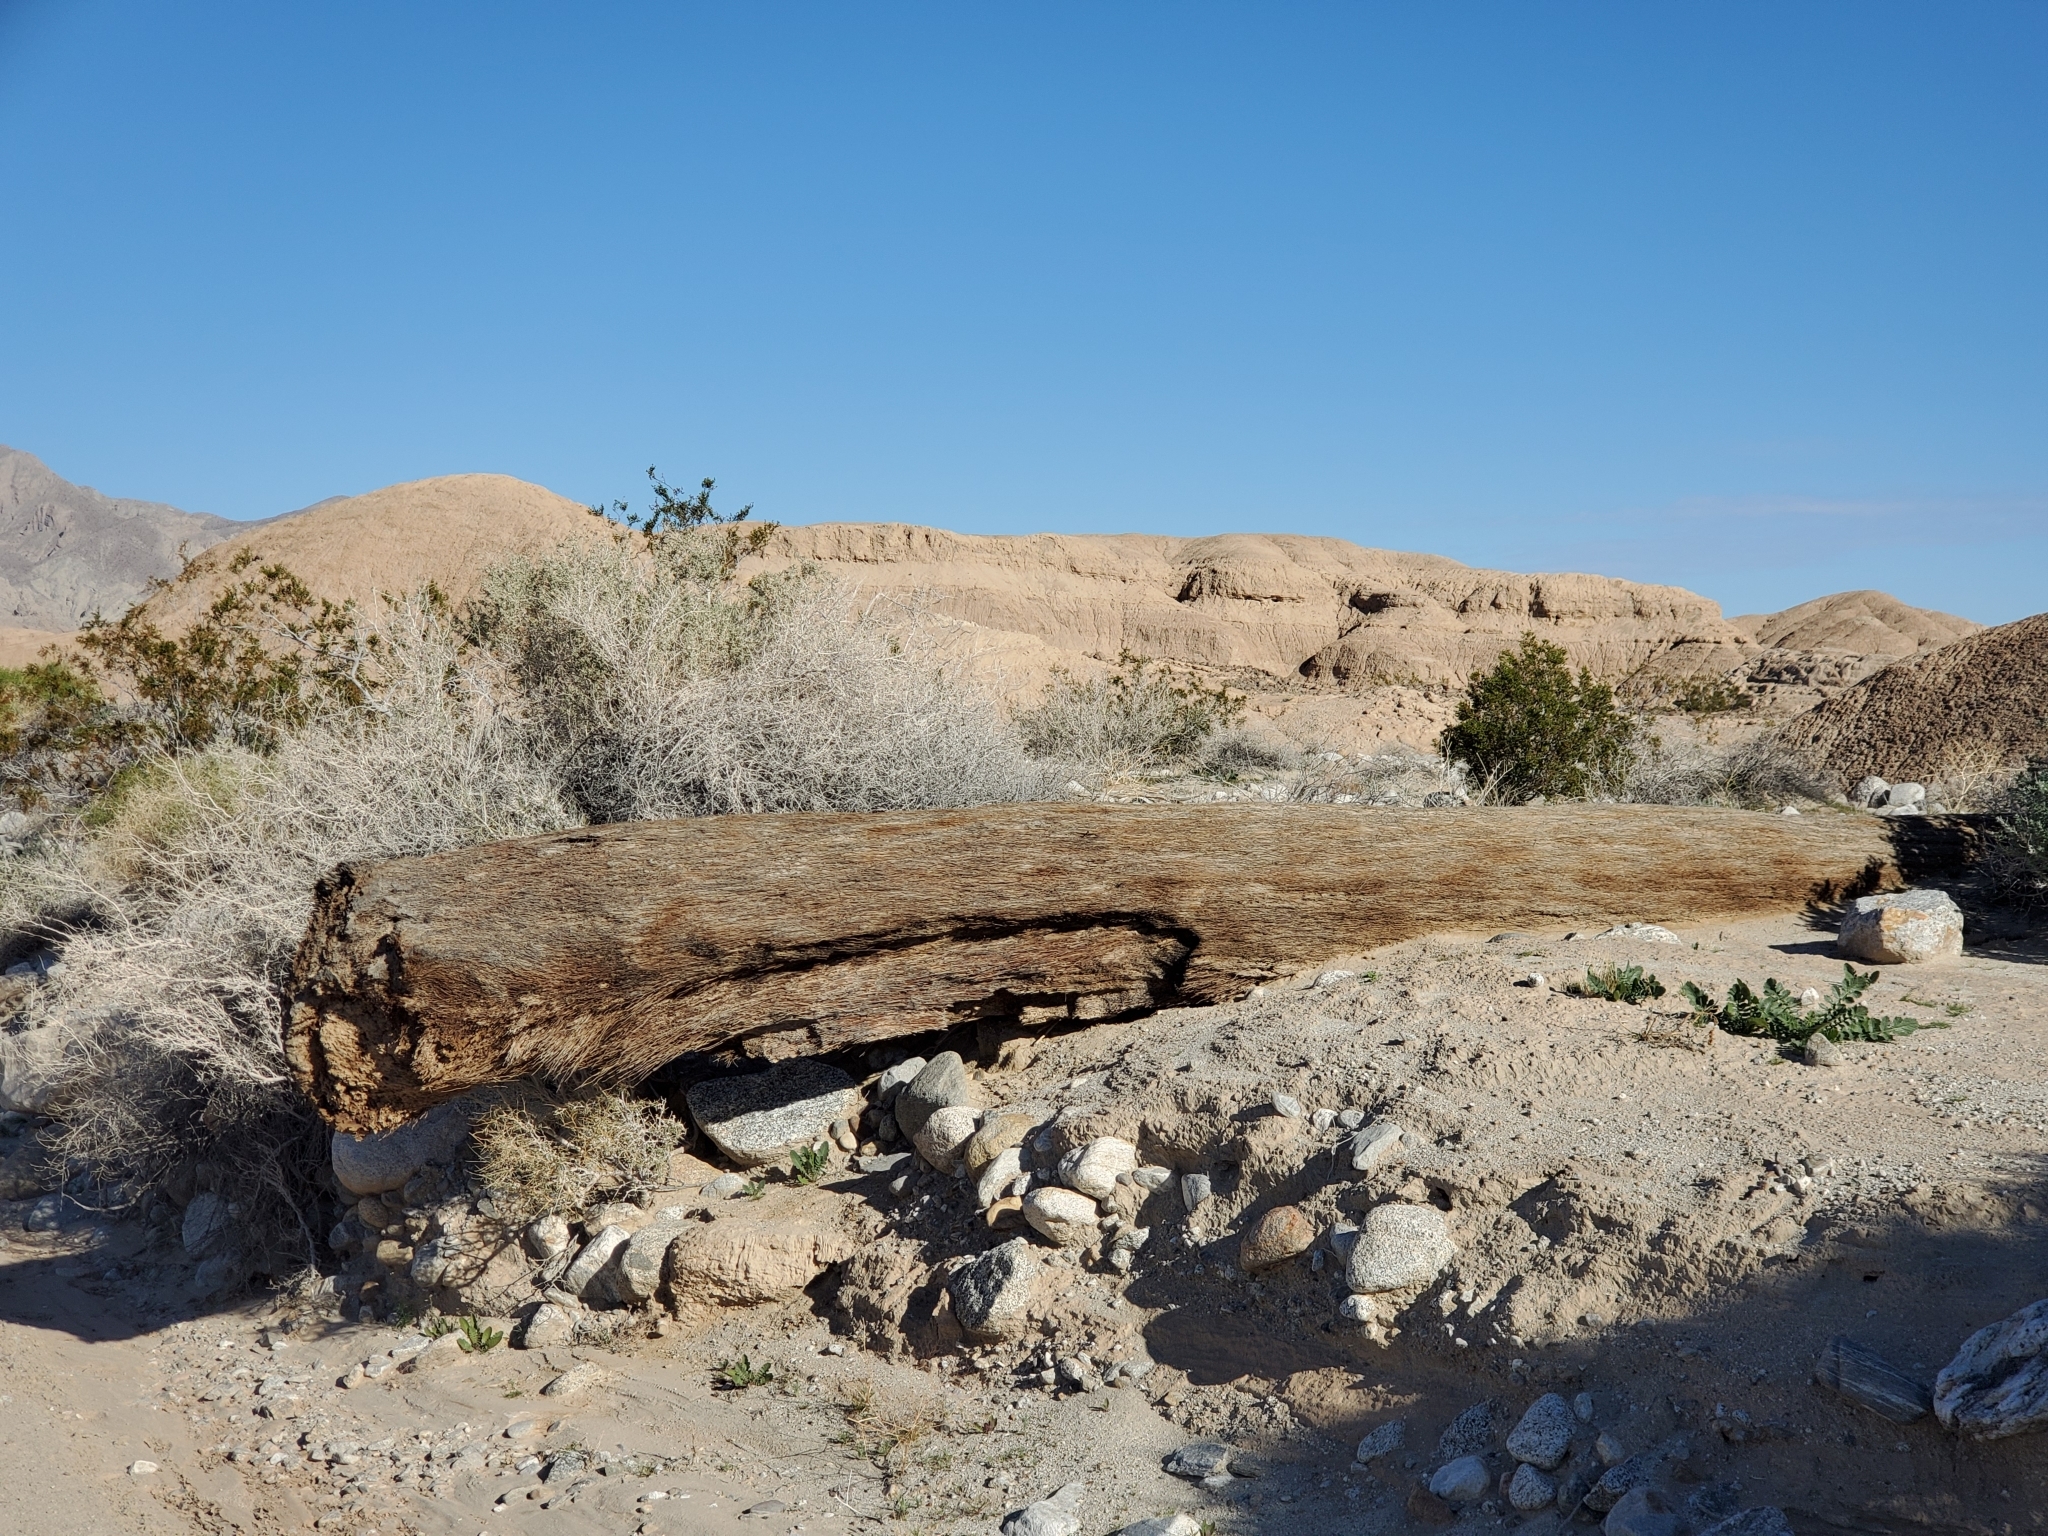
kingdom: Plantae
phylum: Tracheophyta
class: Liliopsida
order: Arecales
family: Arecaceae
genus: Washingtonia
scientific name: Washingtonia filifera
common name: California fan palm
